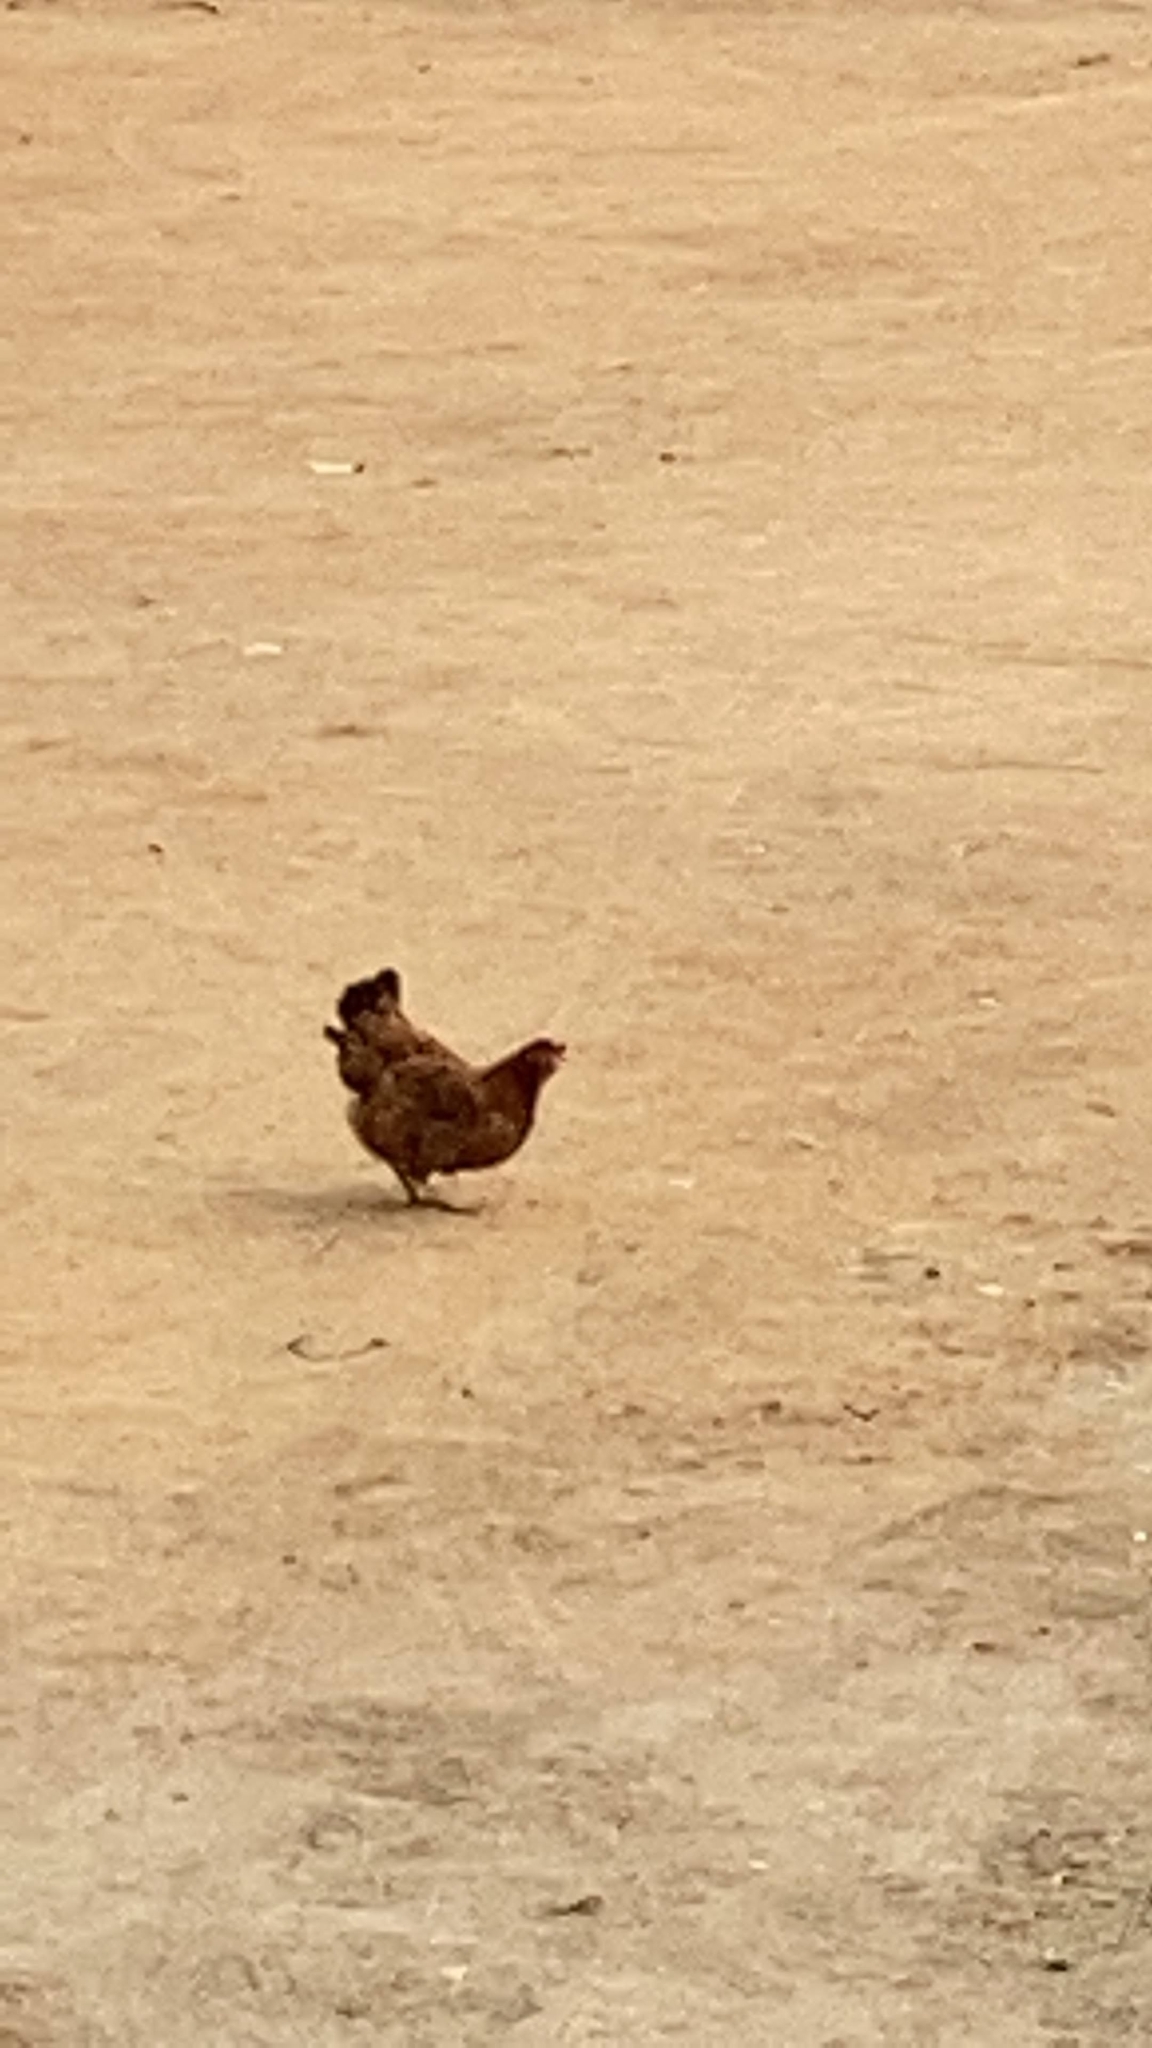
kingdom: Animalia
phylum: Chordata
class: Aves
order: Galliformes
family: Phasianidae
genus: Gallus
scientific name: Gallus gallus
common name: Red junglefowl
